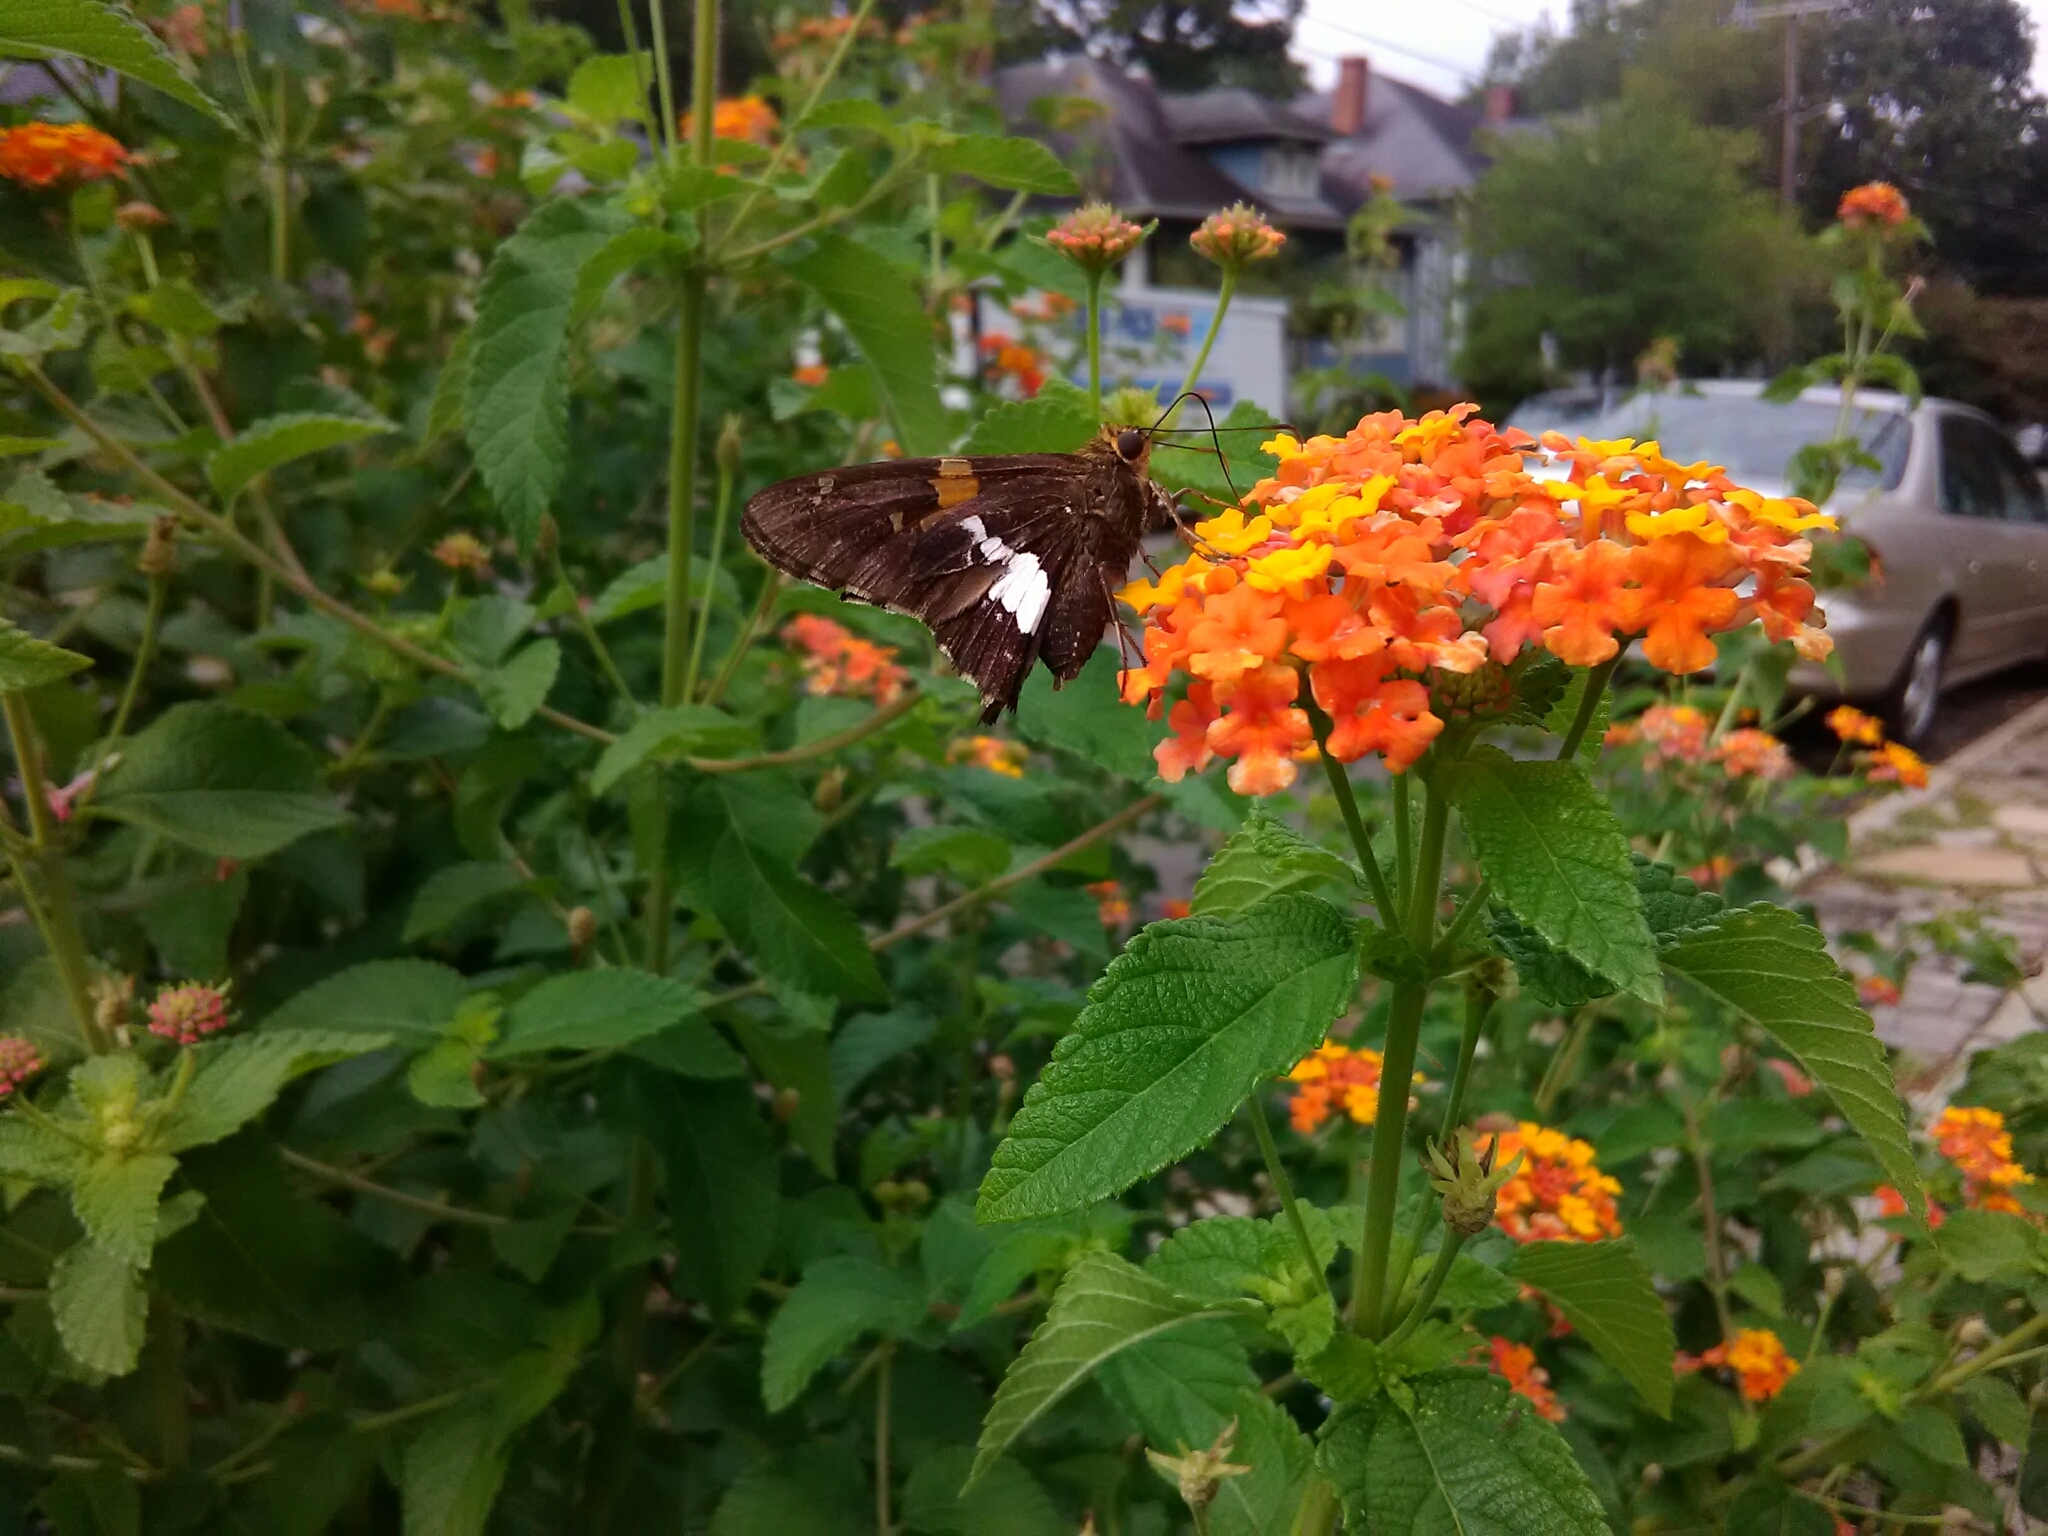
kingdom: Animalia
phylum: Arthropoda
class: Insecta
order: Lepidoptera
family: Hesperiidae
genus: Epargyreus
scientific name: Epargyreus clarus
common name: Silver-spotted skipper
